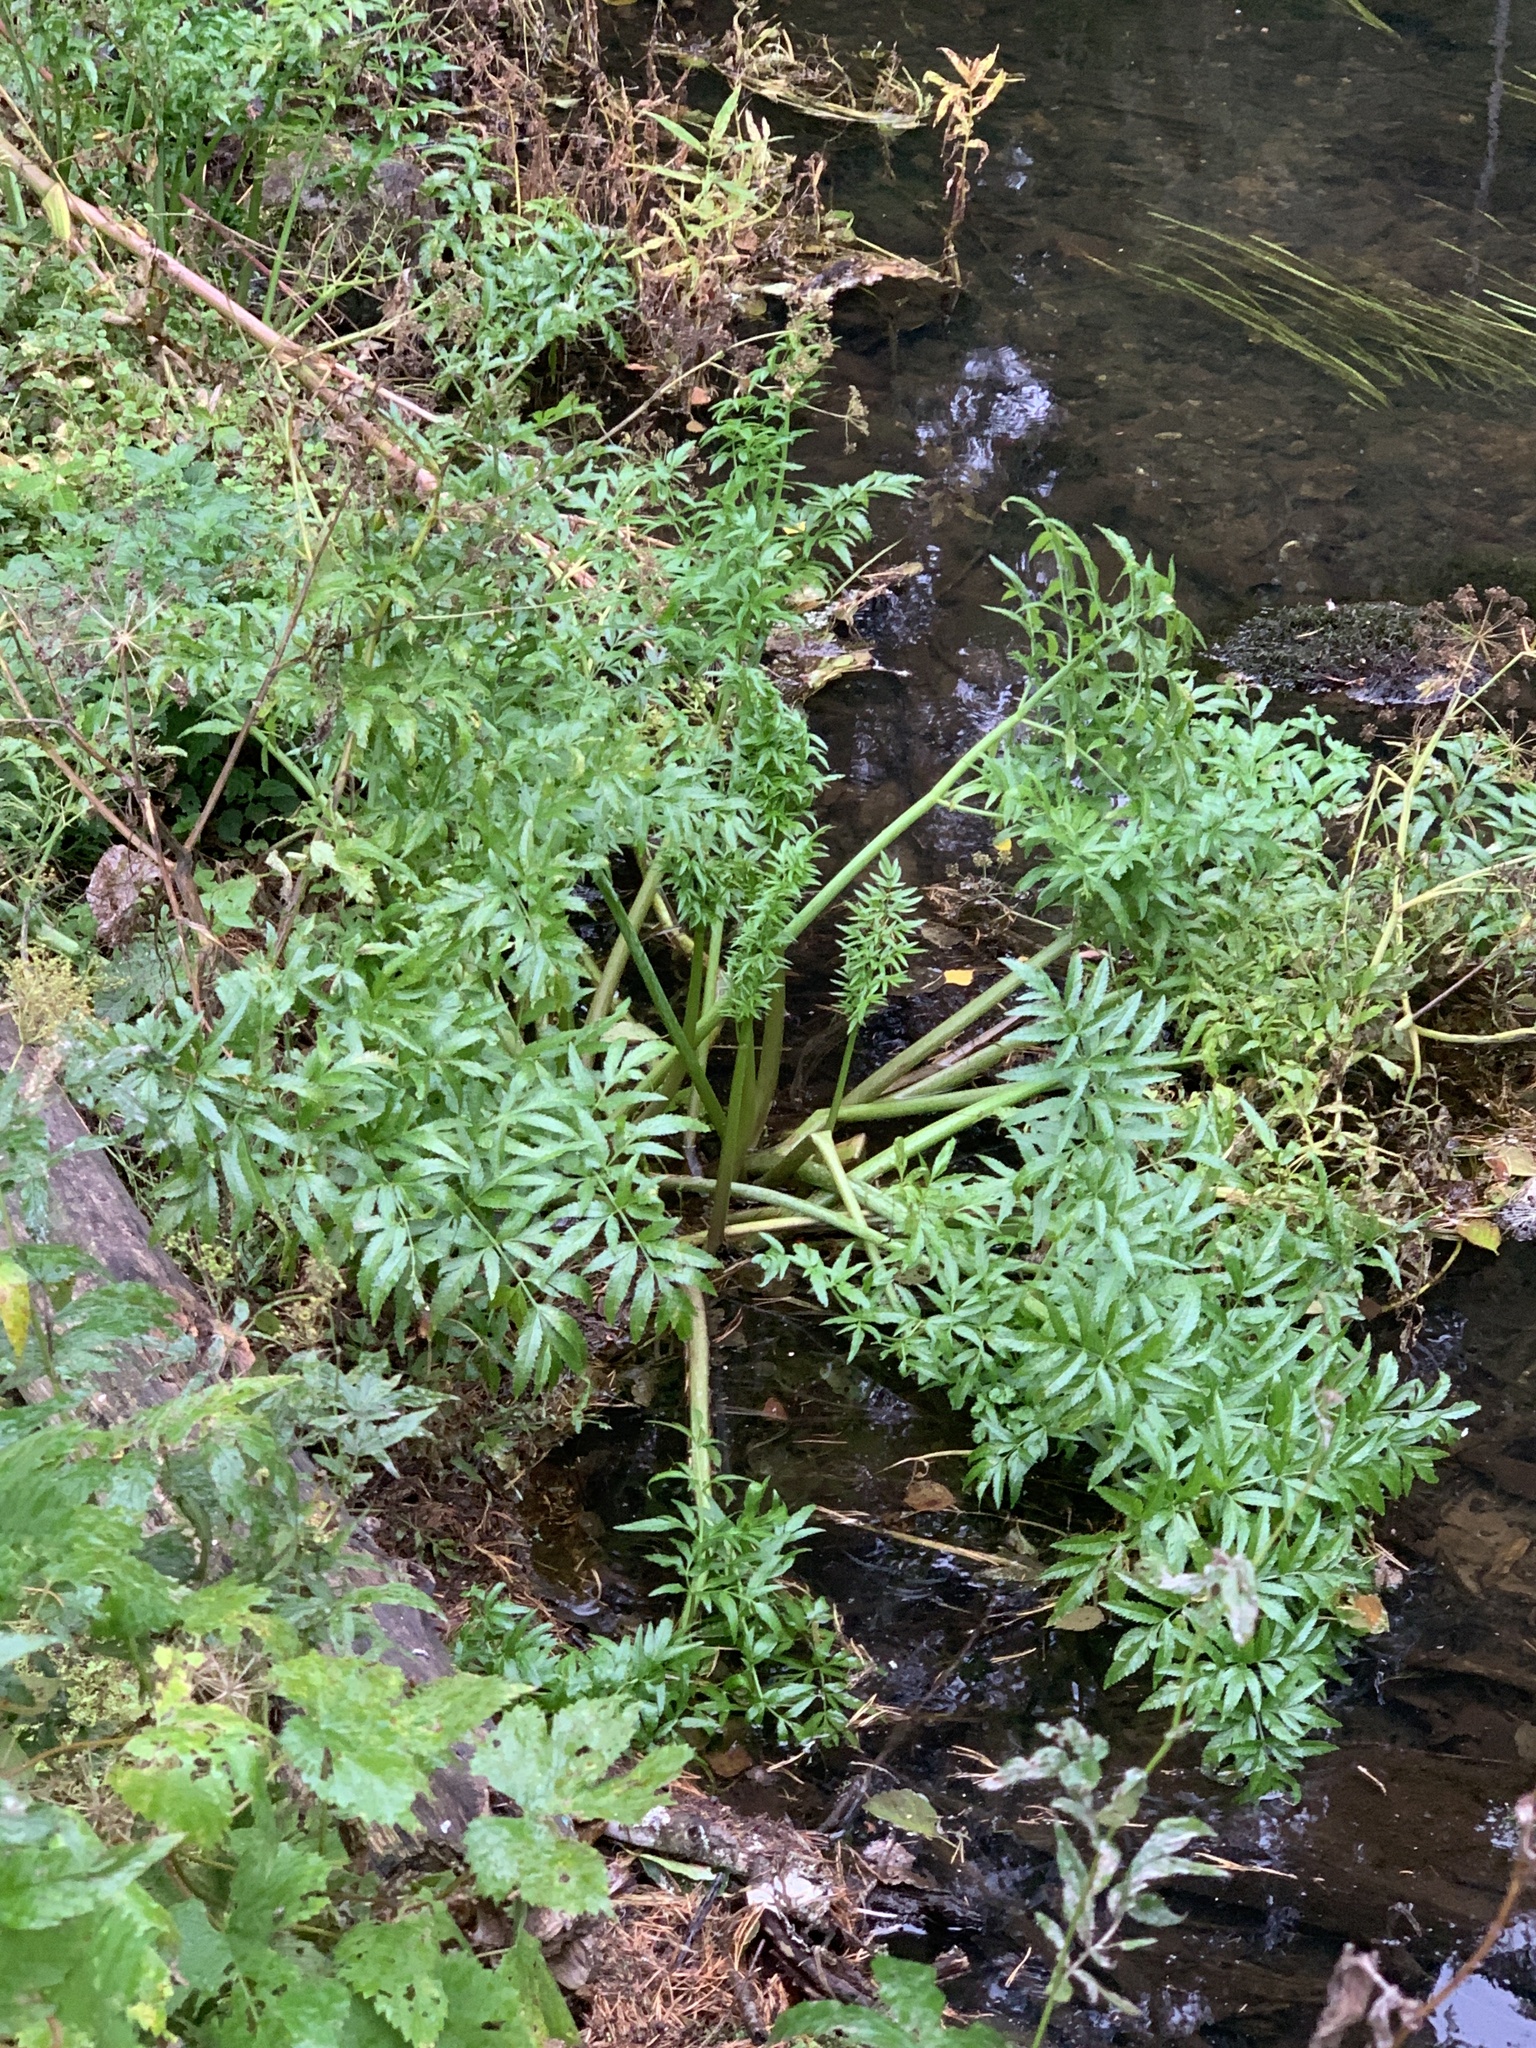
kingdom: Plantae
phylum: Tracheophyta
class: Magnoliopsida
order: Apiales
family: Apiaceae
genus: Cicuta
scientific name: Cicuta virosa
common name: Cowbane
